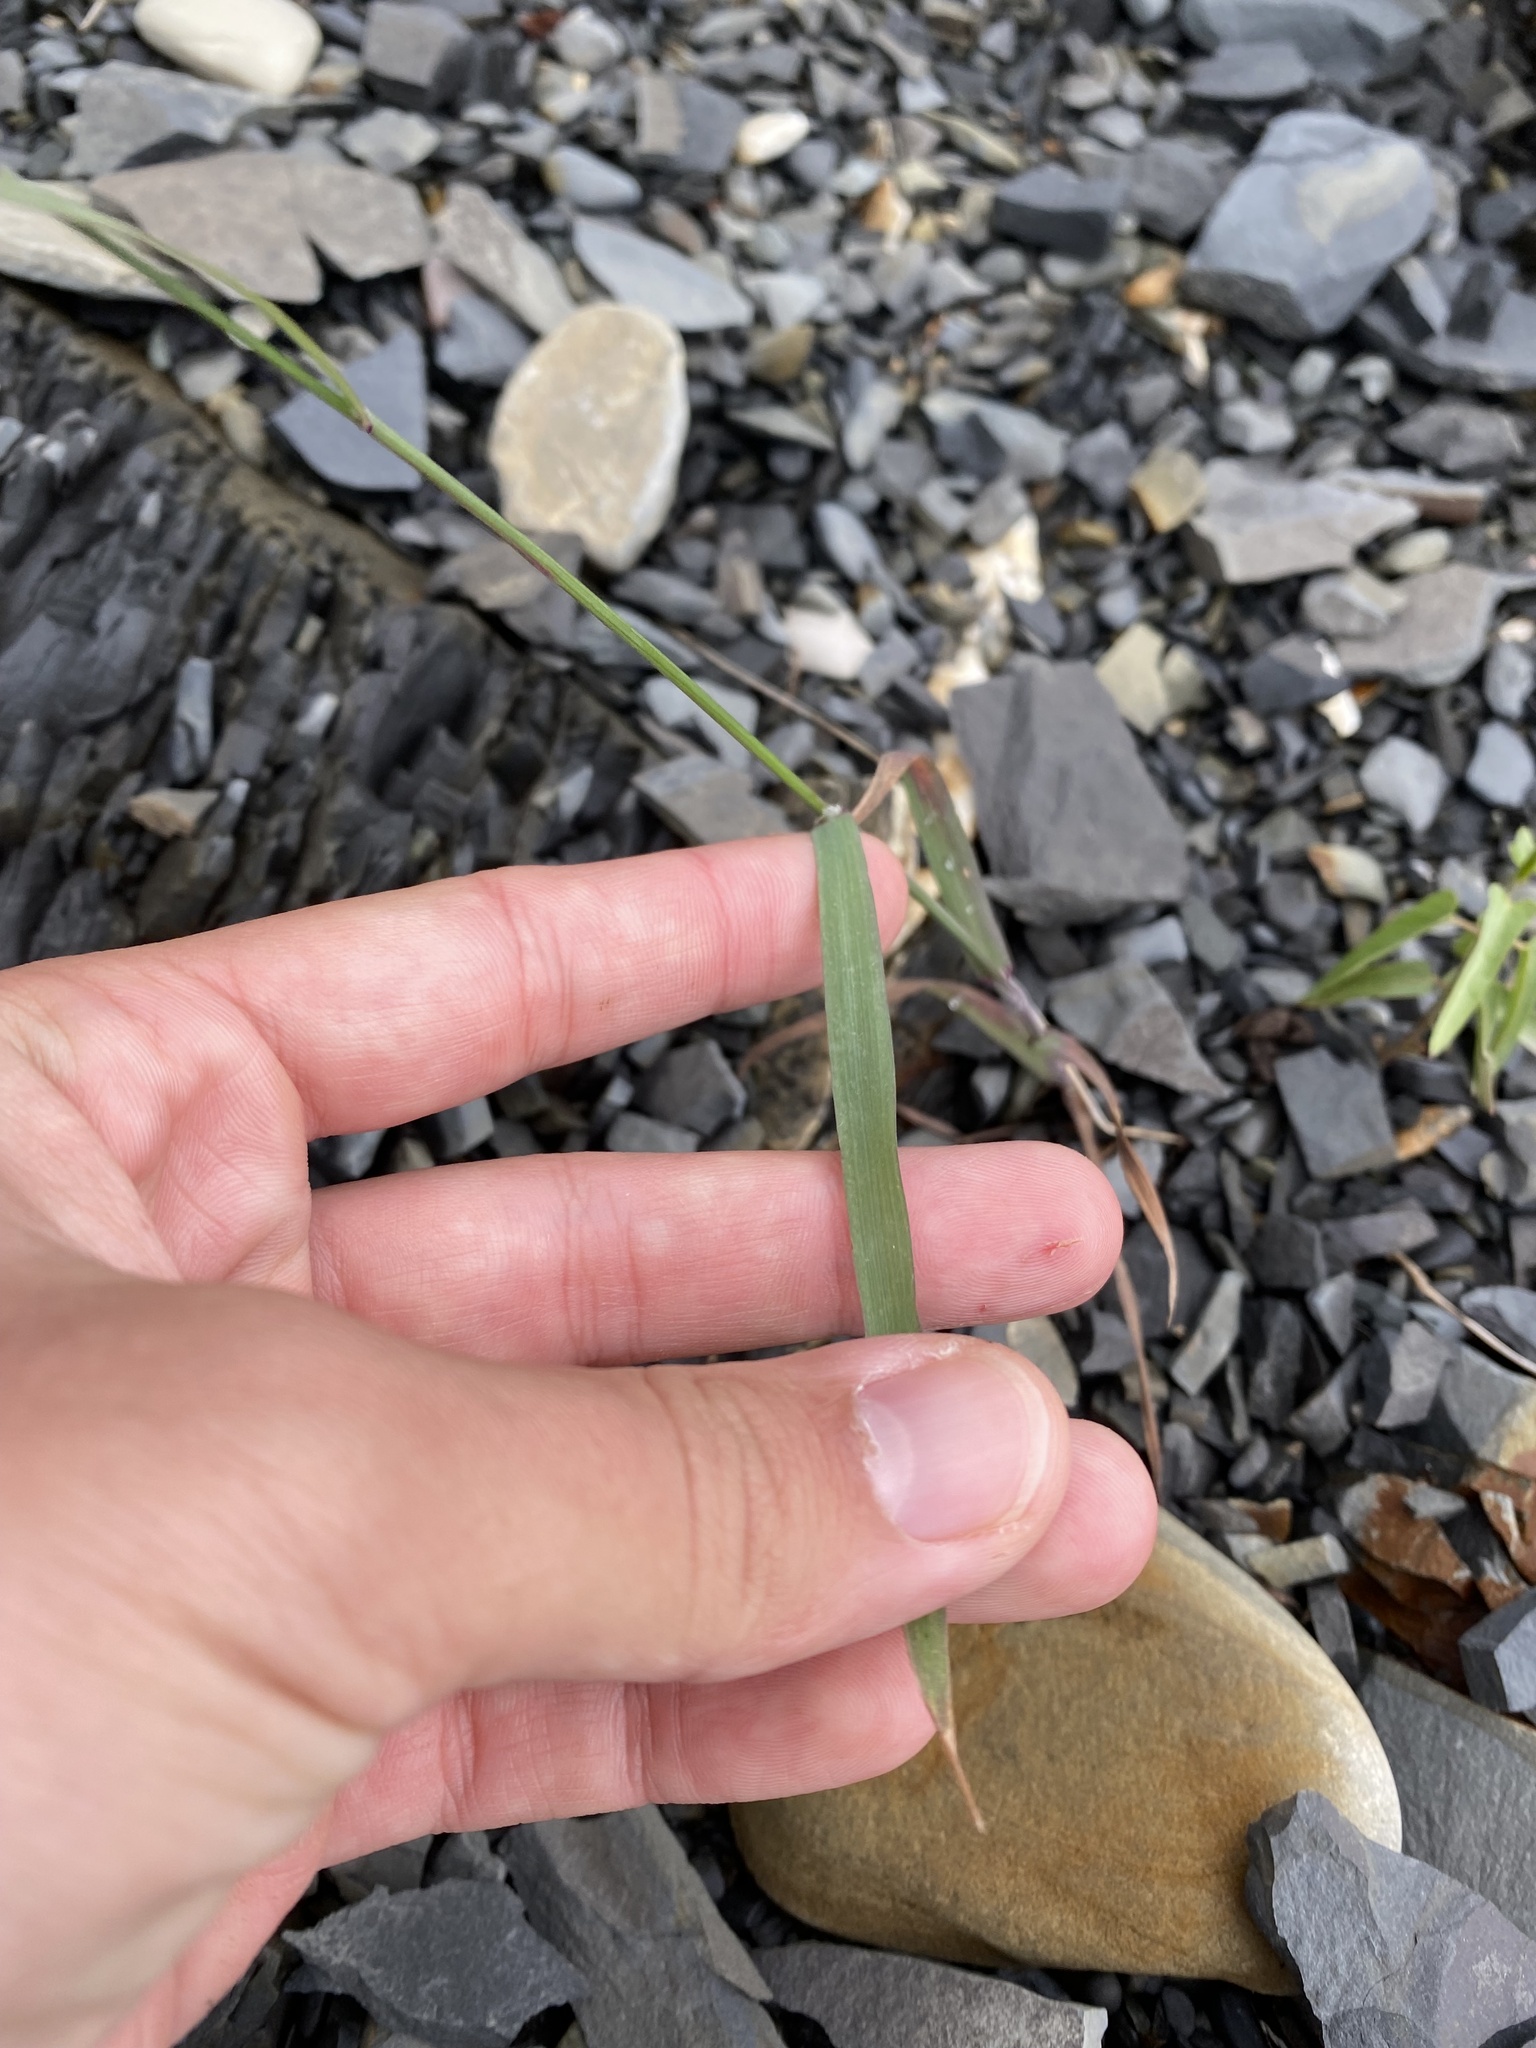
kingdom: Plantae
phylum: Tracheophyta
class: Liliopsida
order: Poales
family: Poaceae
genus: Bromus
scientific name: Bromus sterilis
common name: Poverty brome
